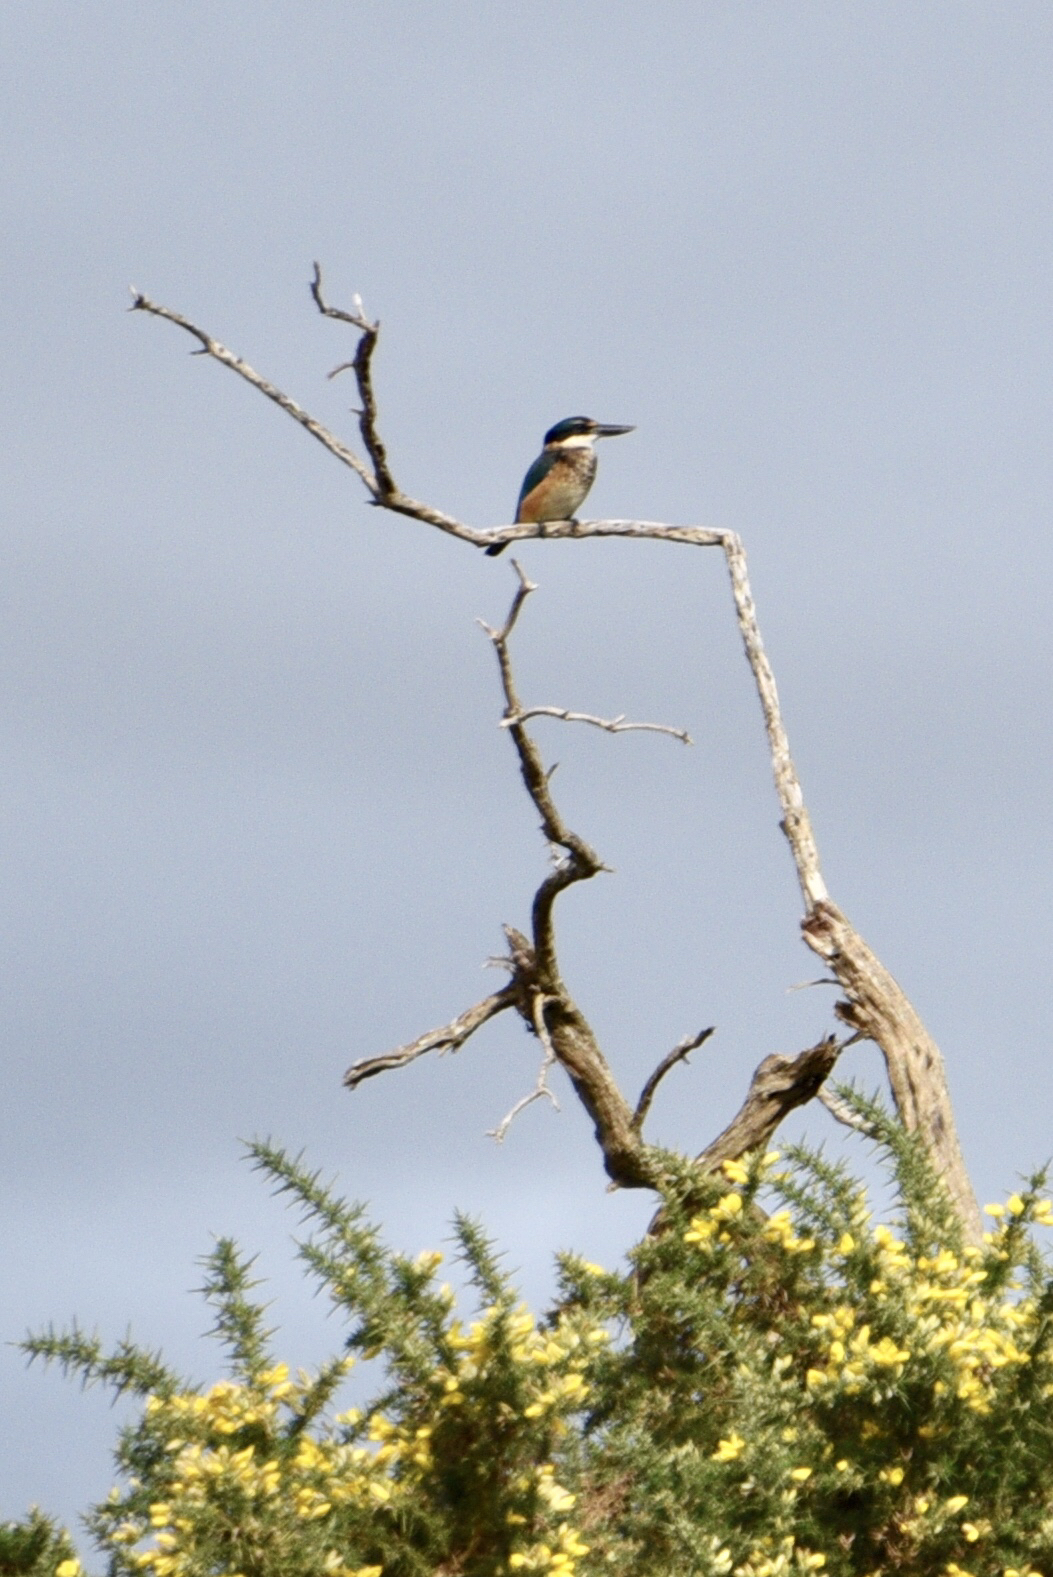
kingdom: Animalia
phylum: Chordata
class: Aves
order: Coraciiformes
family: Alcedinidae
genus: Todiramphus
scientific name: Todiramphus sanctus
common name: Sacred kingfisher
